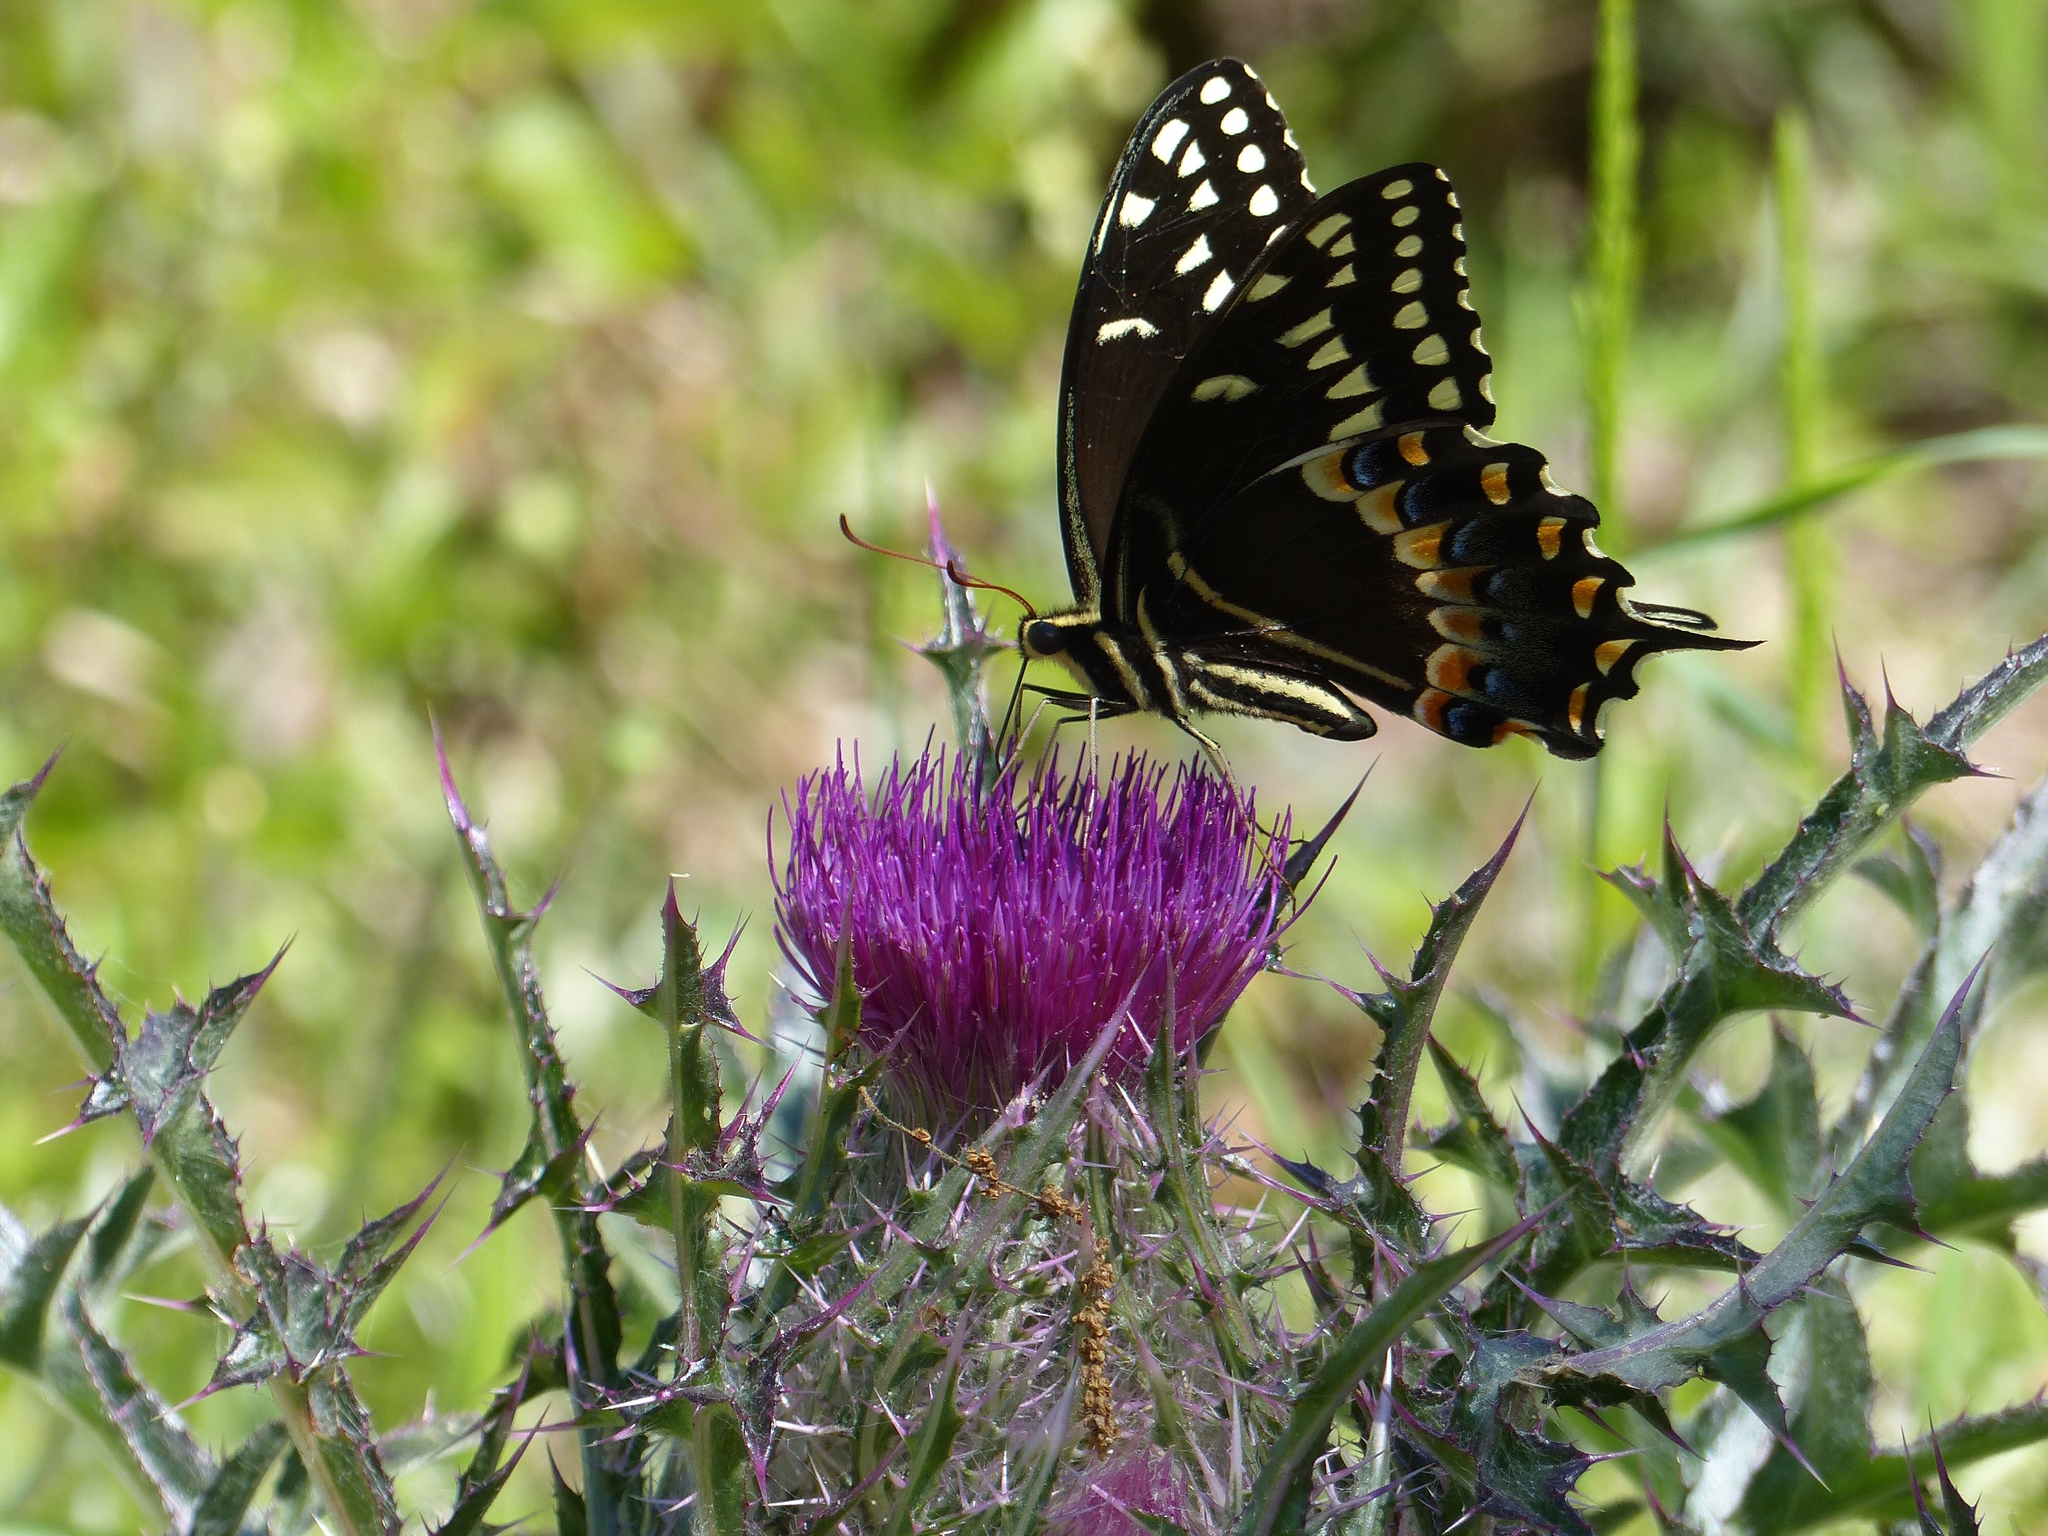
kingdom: Animalia
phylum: Arthropoda
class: Insecta
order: Lepidoptera
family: Papilionidae
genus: Papilio
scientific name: Papilio palamedes
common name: Palamedes swallowtail
